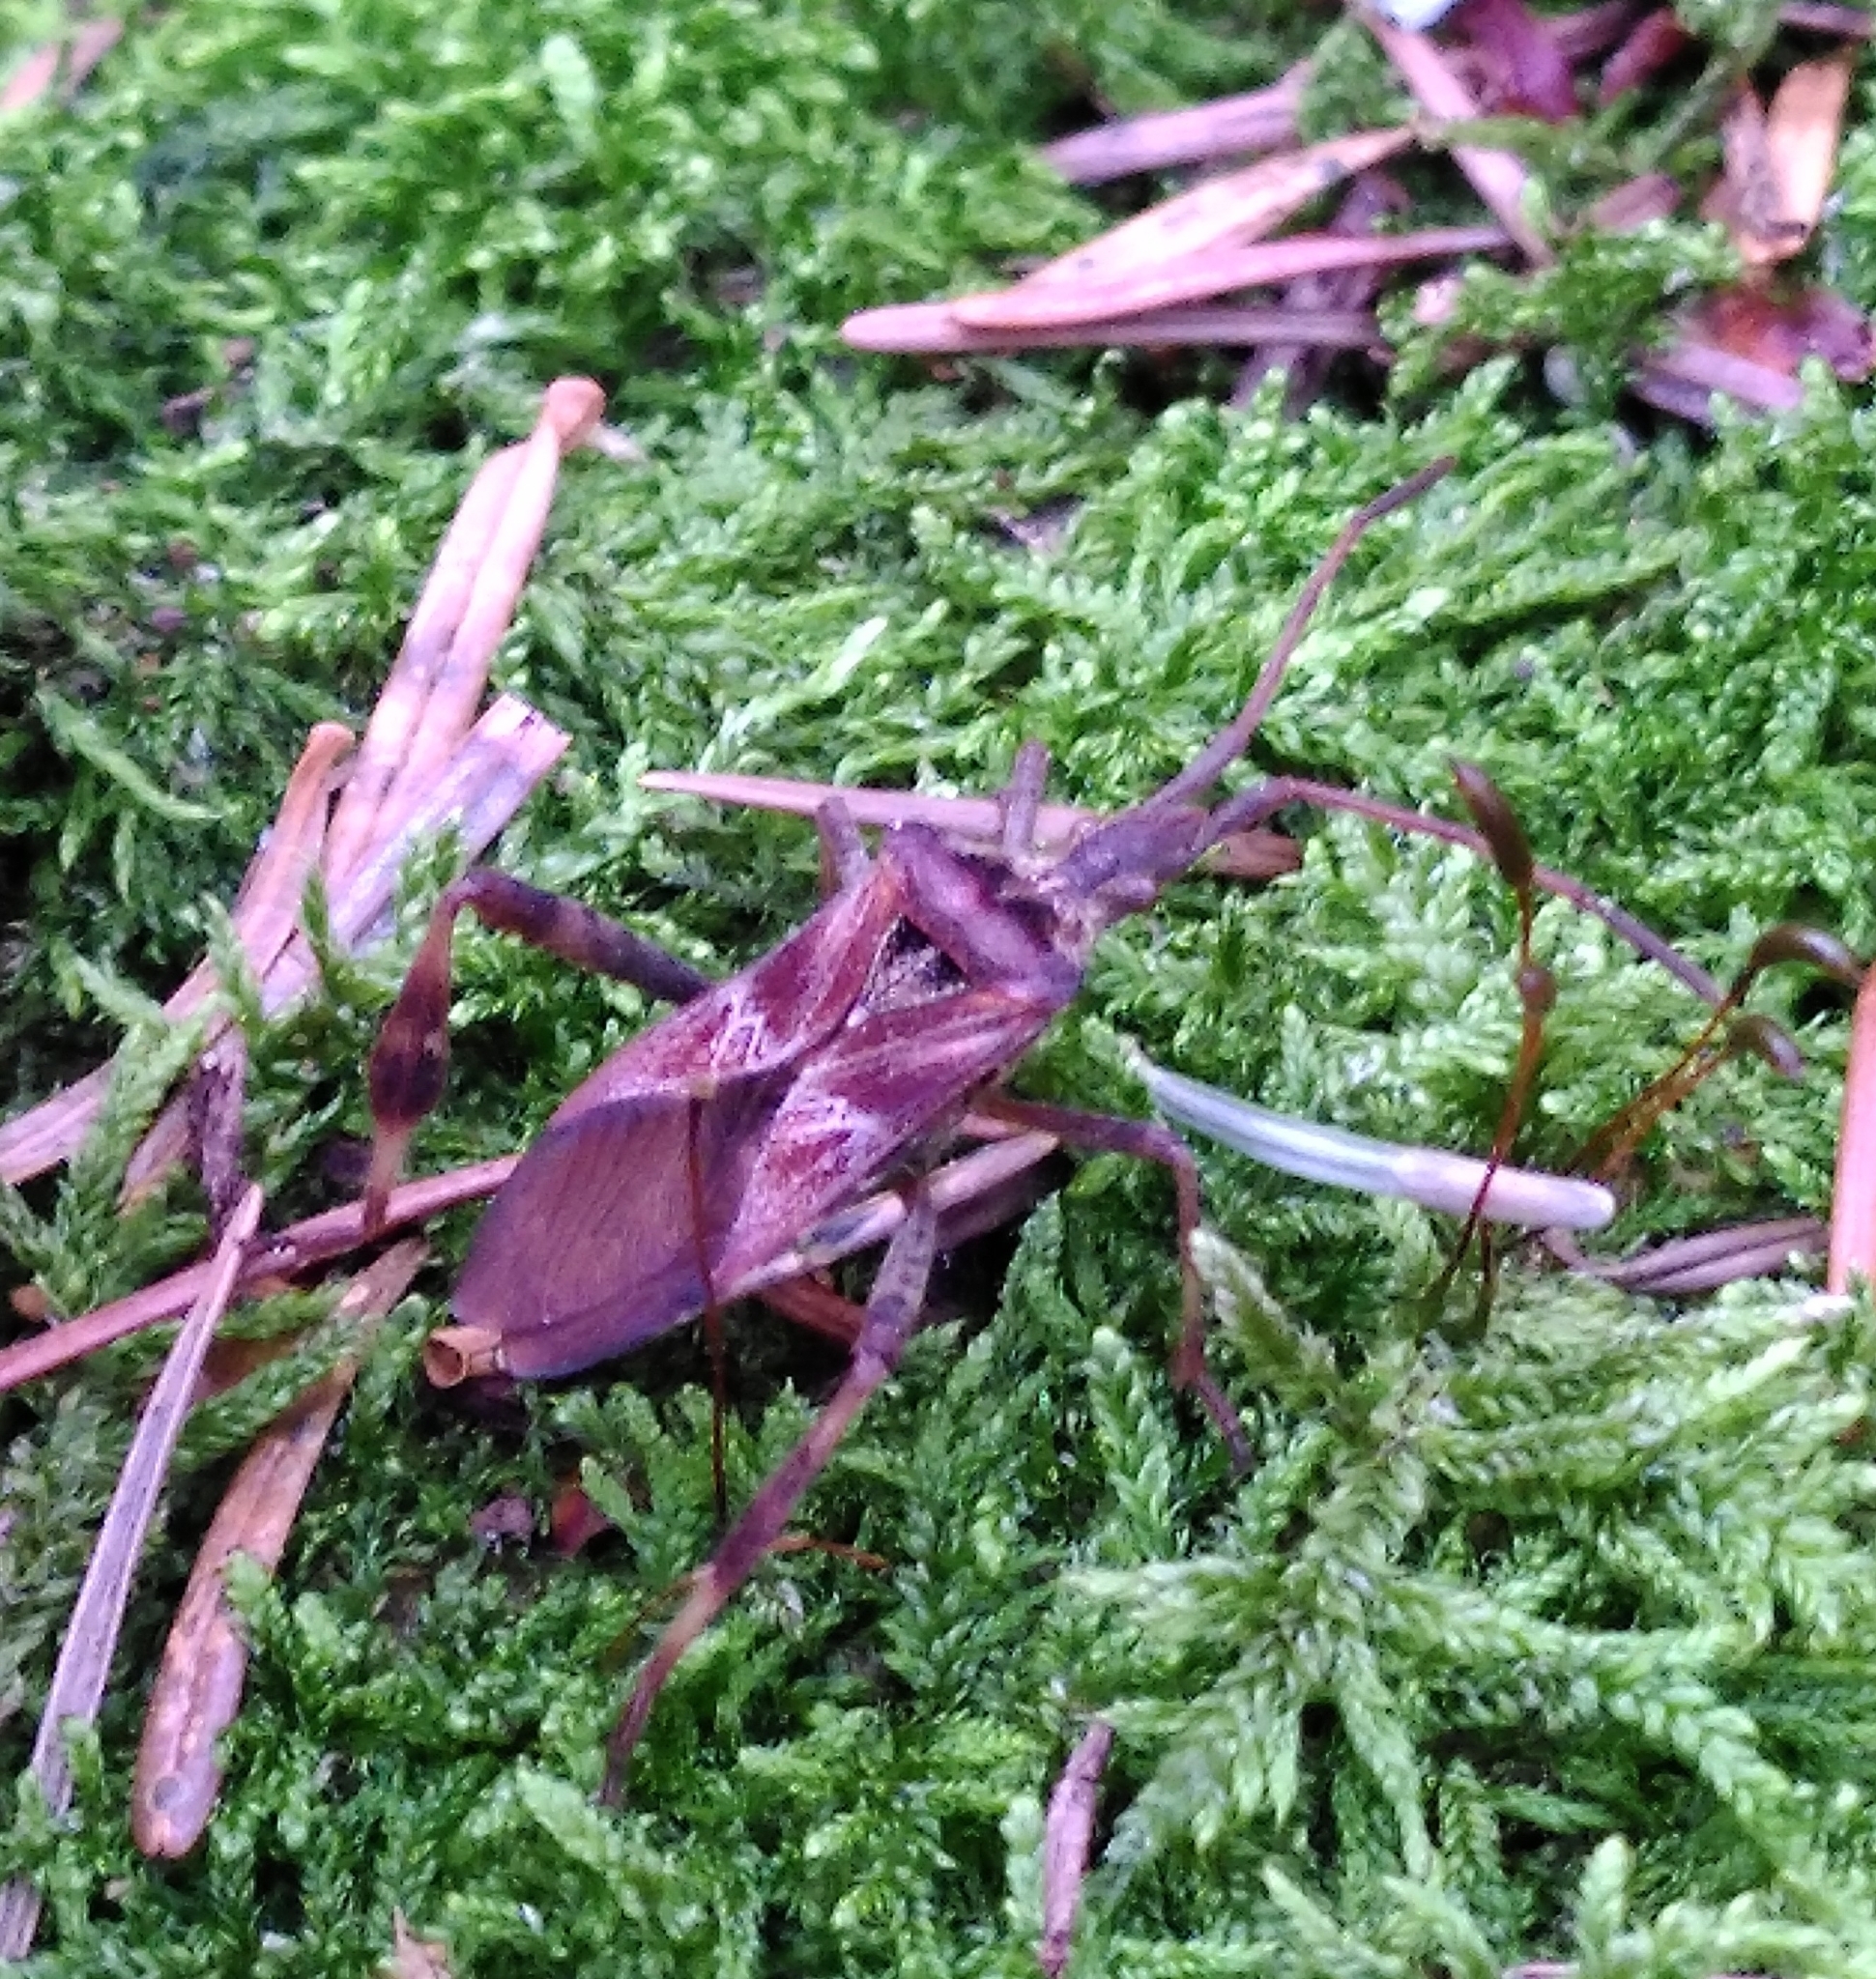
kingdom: Animalia
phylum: Arthropoda
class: Insecta
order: Hemiptera
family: Coreidae
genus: Leptoglossus
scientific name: Leptoglossus occidentalis
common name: Western conifer-seed bug
